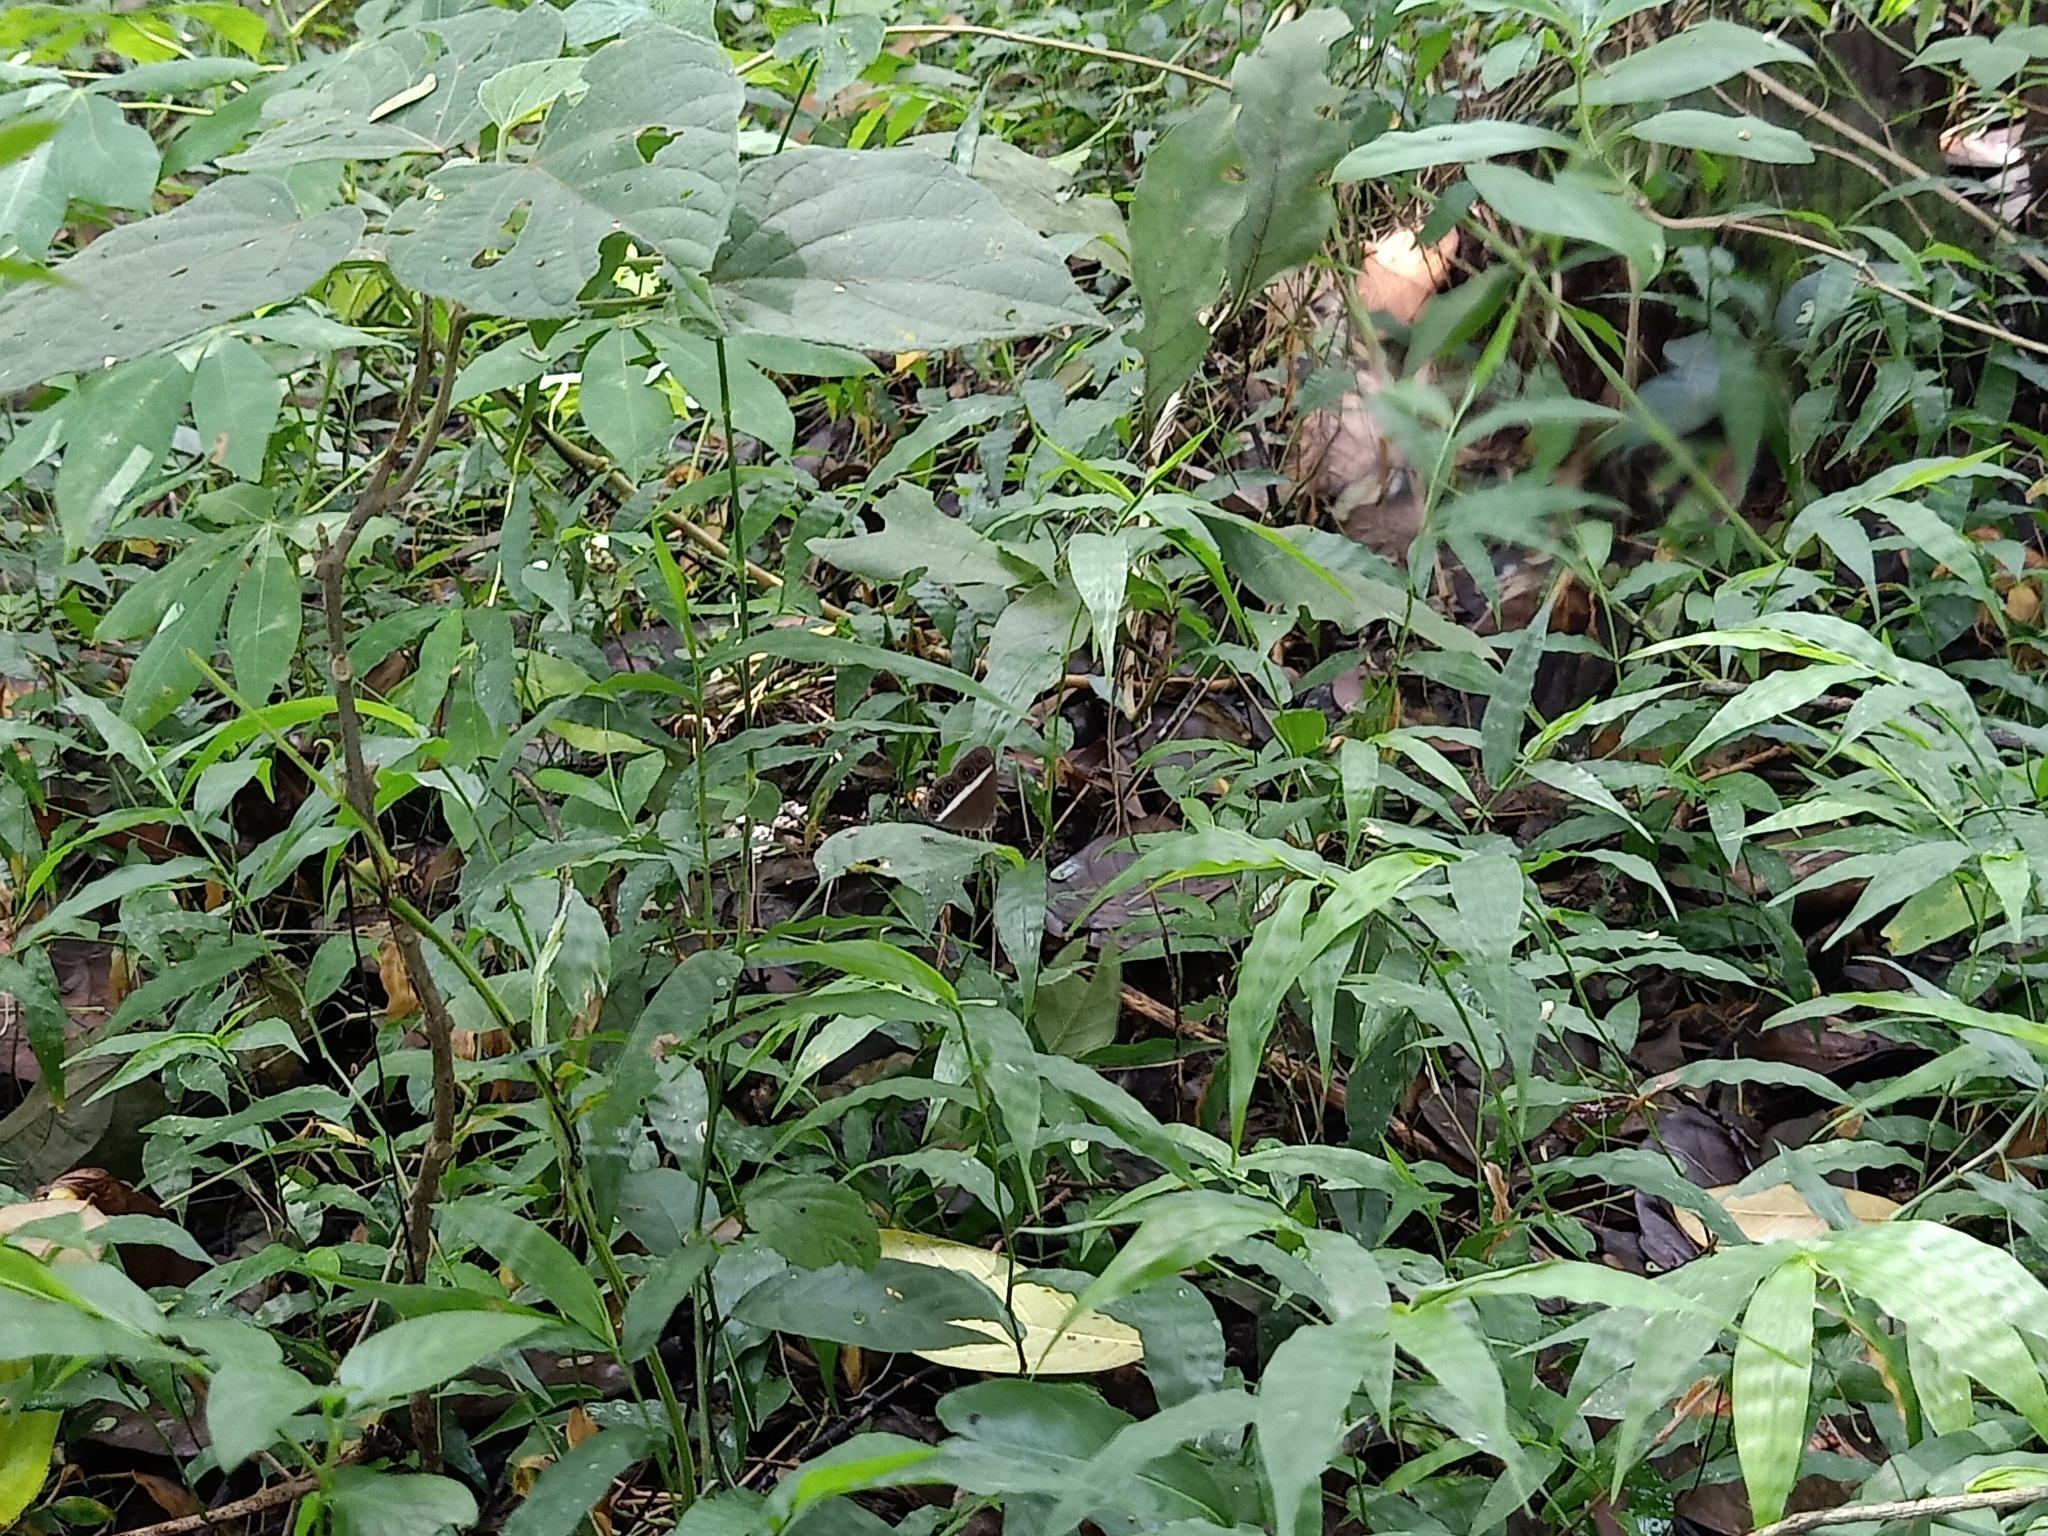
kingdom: Animalia
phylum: Arthropoda
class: Insecta
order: Lepidoptera
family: Nymphalidae
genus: Orsotriaena
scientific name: Orsotriaena medus
